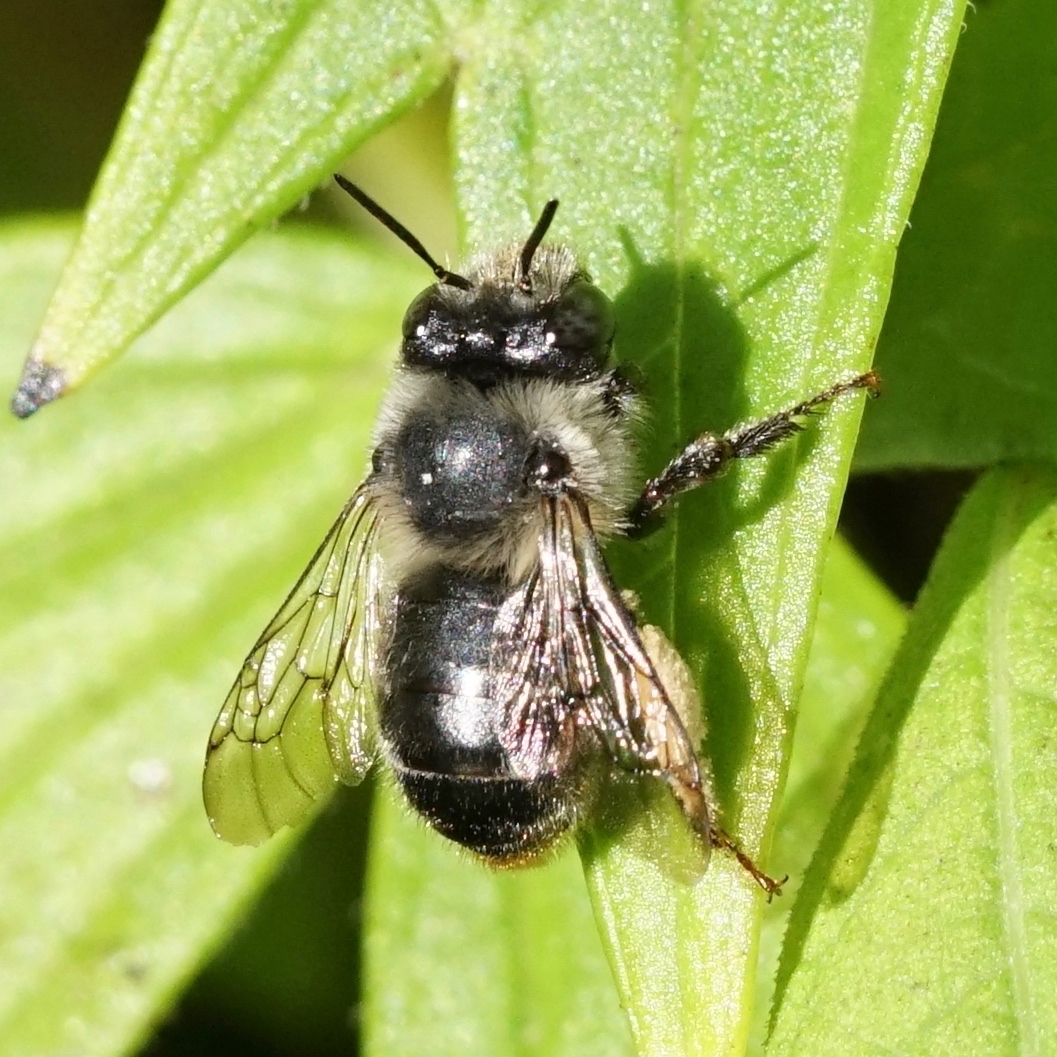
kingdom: Animalia
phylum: Arthropoda
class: Insecta
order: Hymenoptera
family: Apidae
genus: Anthophora
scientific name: Anthophora terminalis
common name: Orange-tipped wood-digger bee
